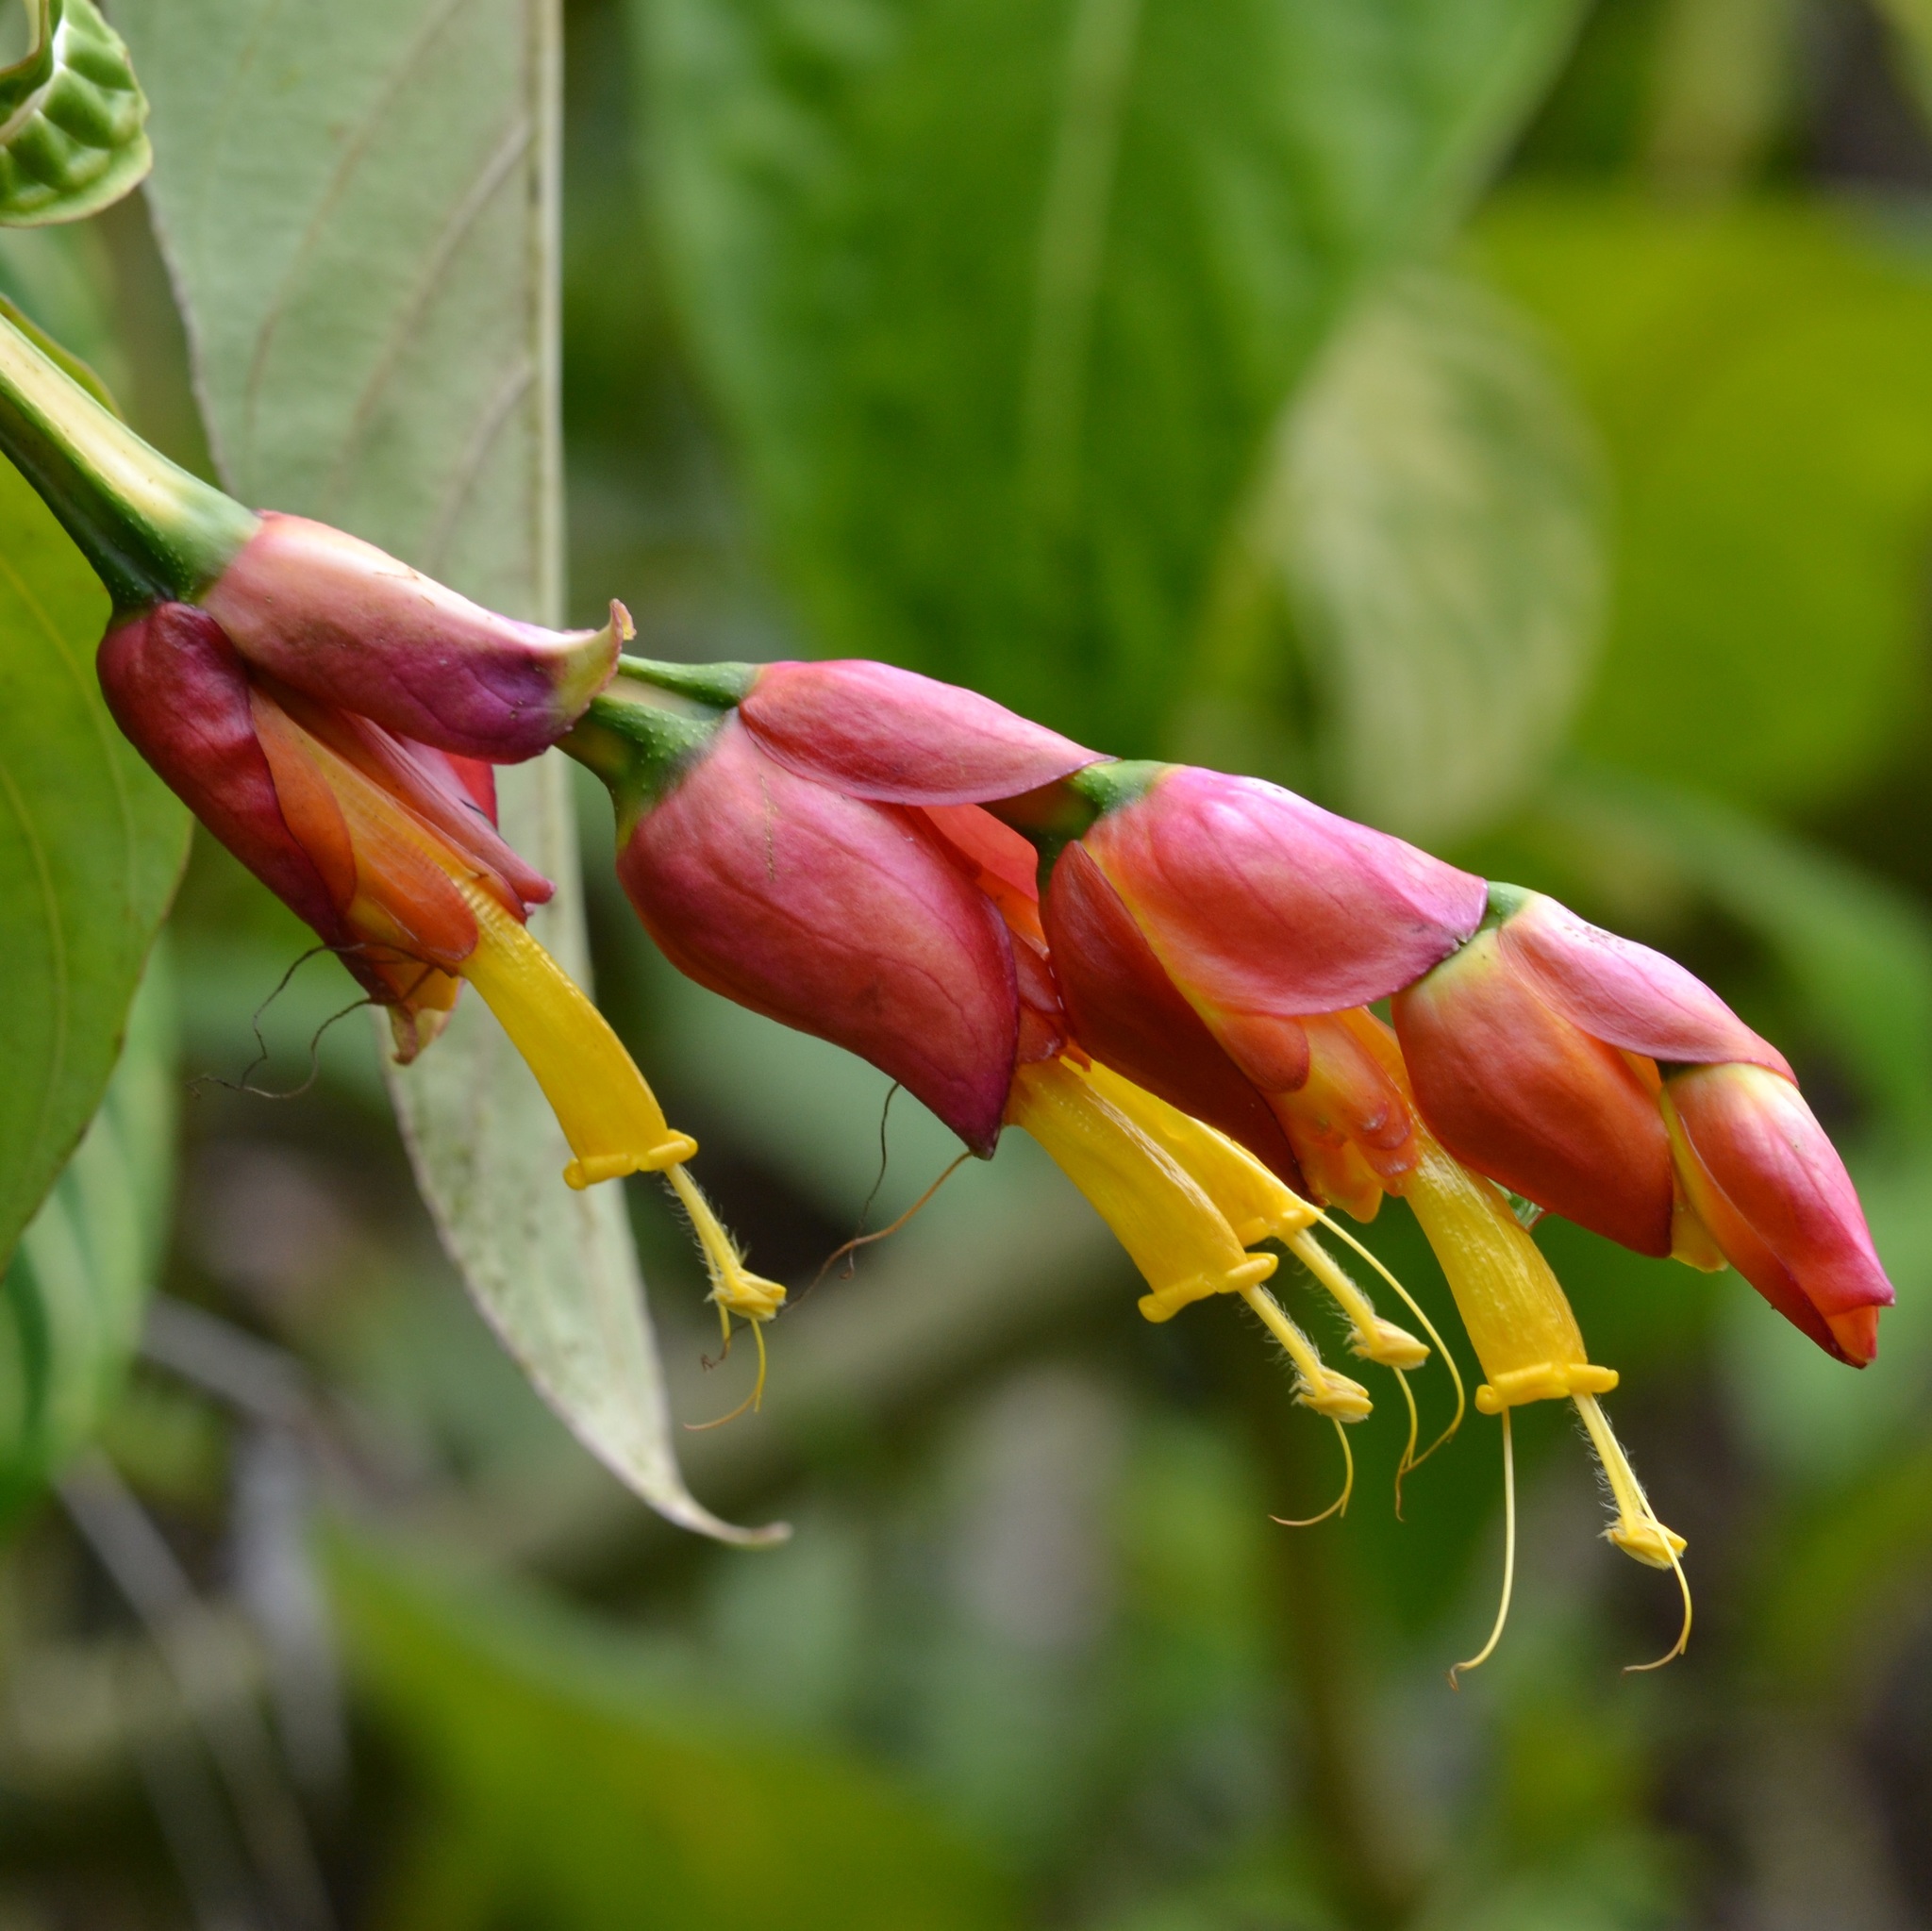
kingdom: Plantae
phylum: Tracheophyta
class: Magnoliopsida
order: Lamiales
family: Acanthaceae
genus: Sanchezia
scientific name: Sanchezia oblonga
